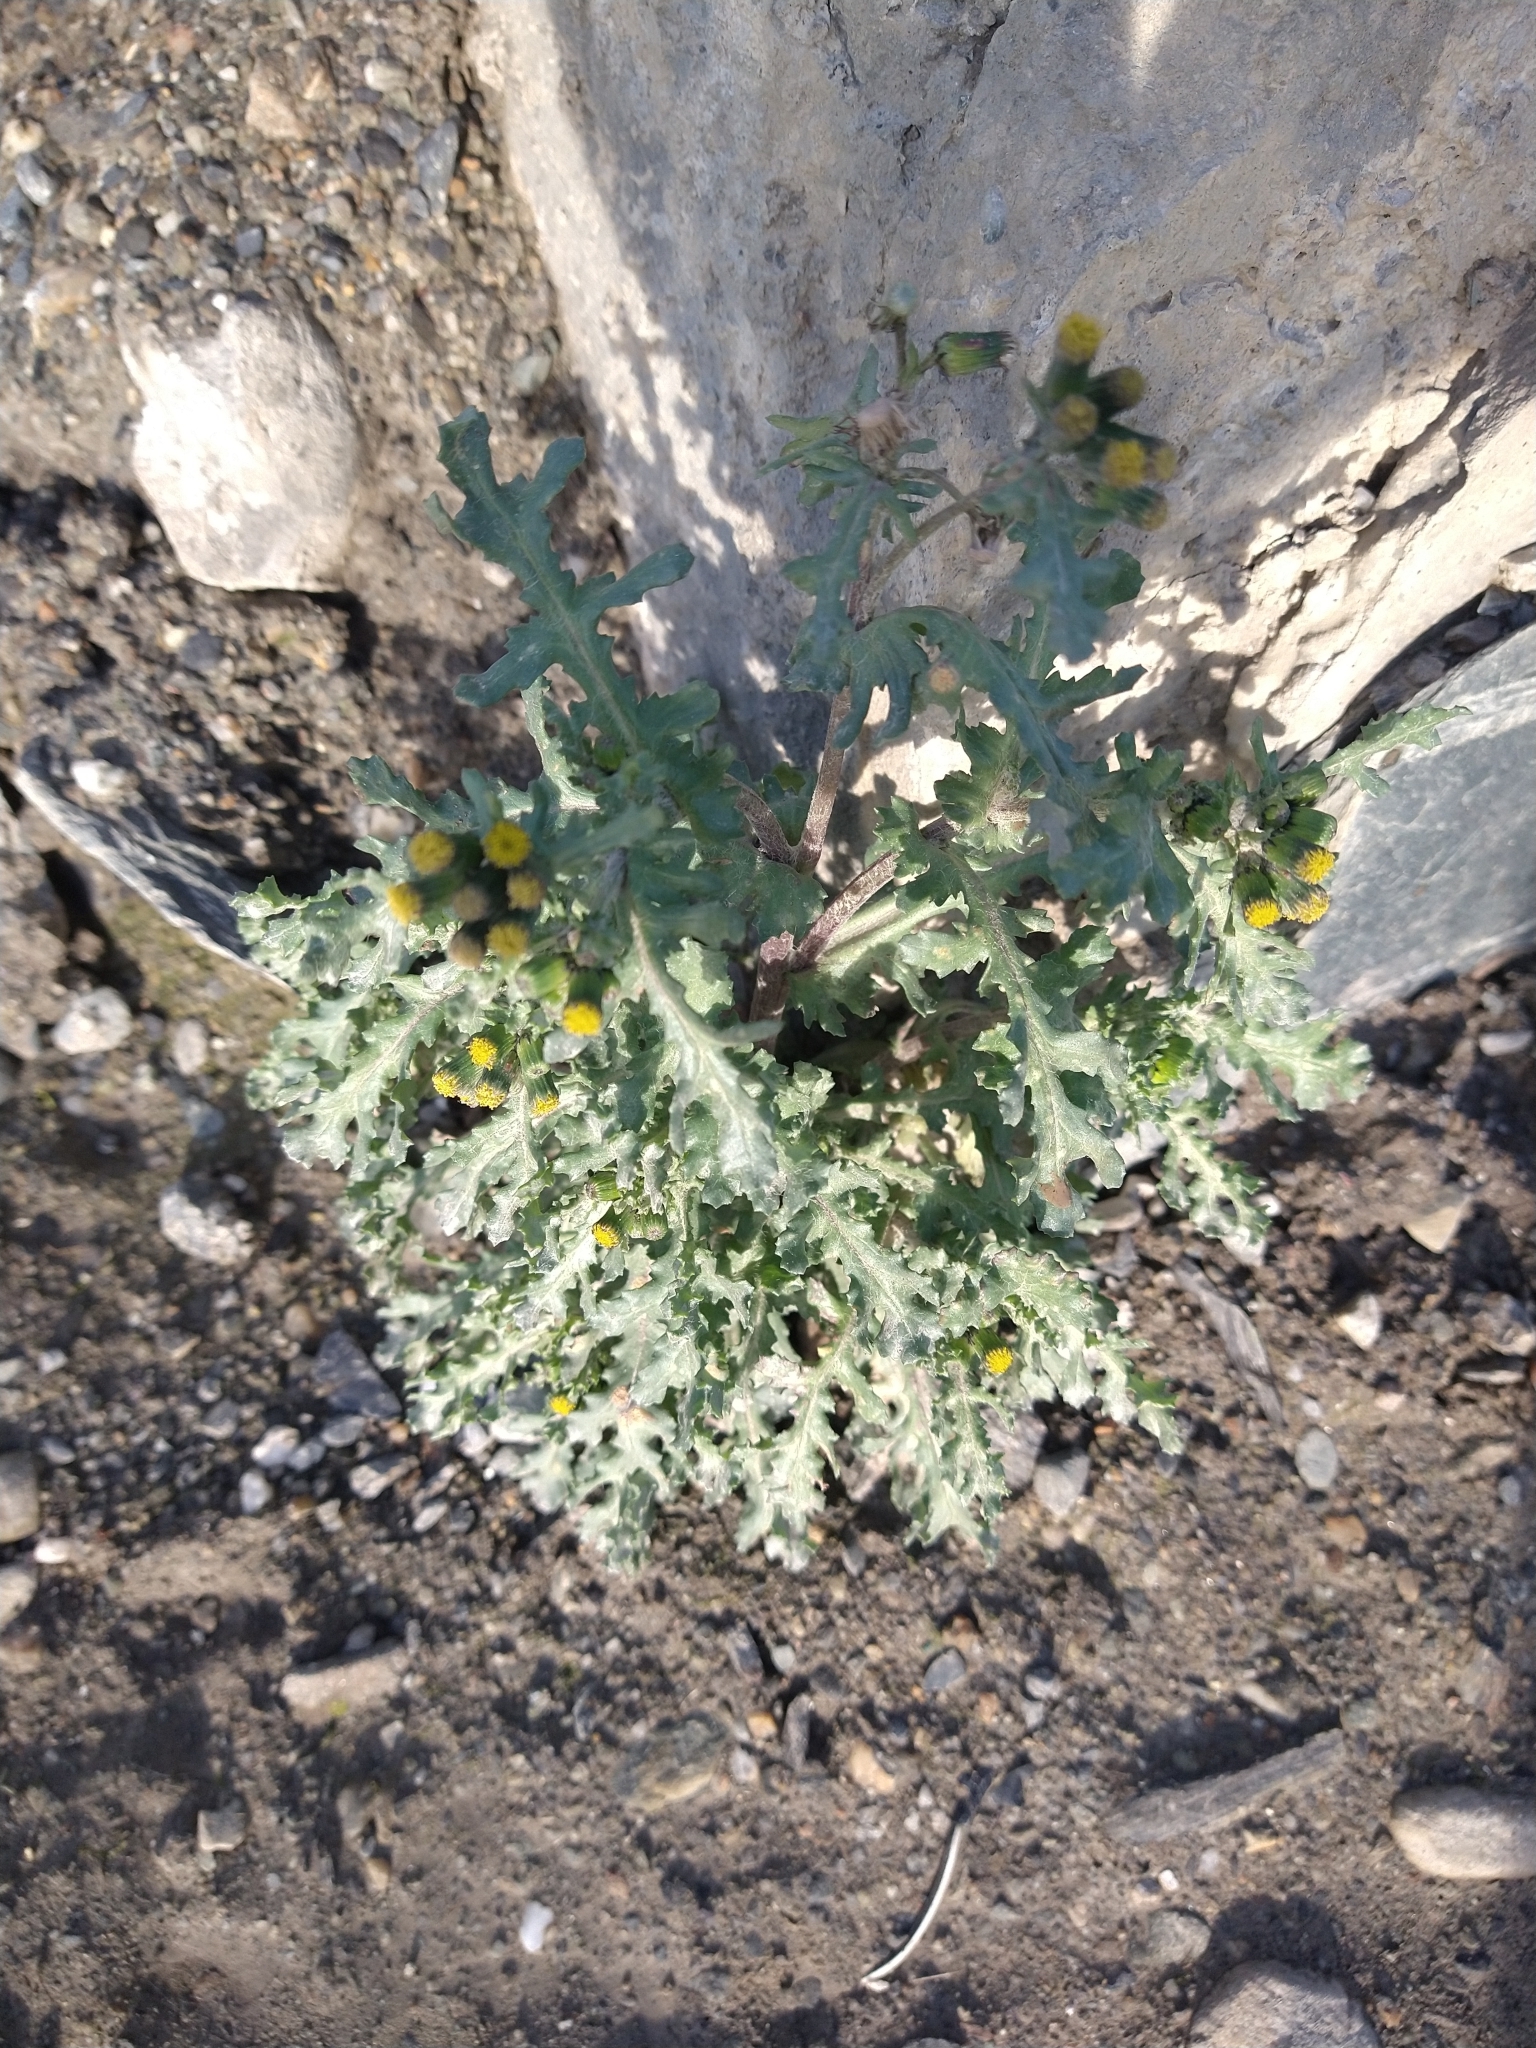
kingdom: Plantae
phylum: Tracheophyta
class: Magnoliopsida
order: Asterales
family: Asteraceae
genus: Senecio
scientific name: Senecio vulgaris
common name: Old-man-in-the-spring
